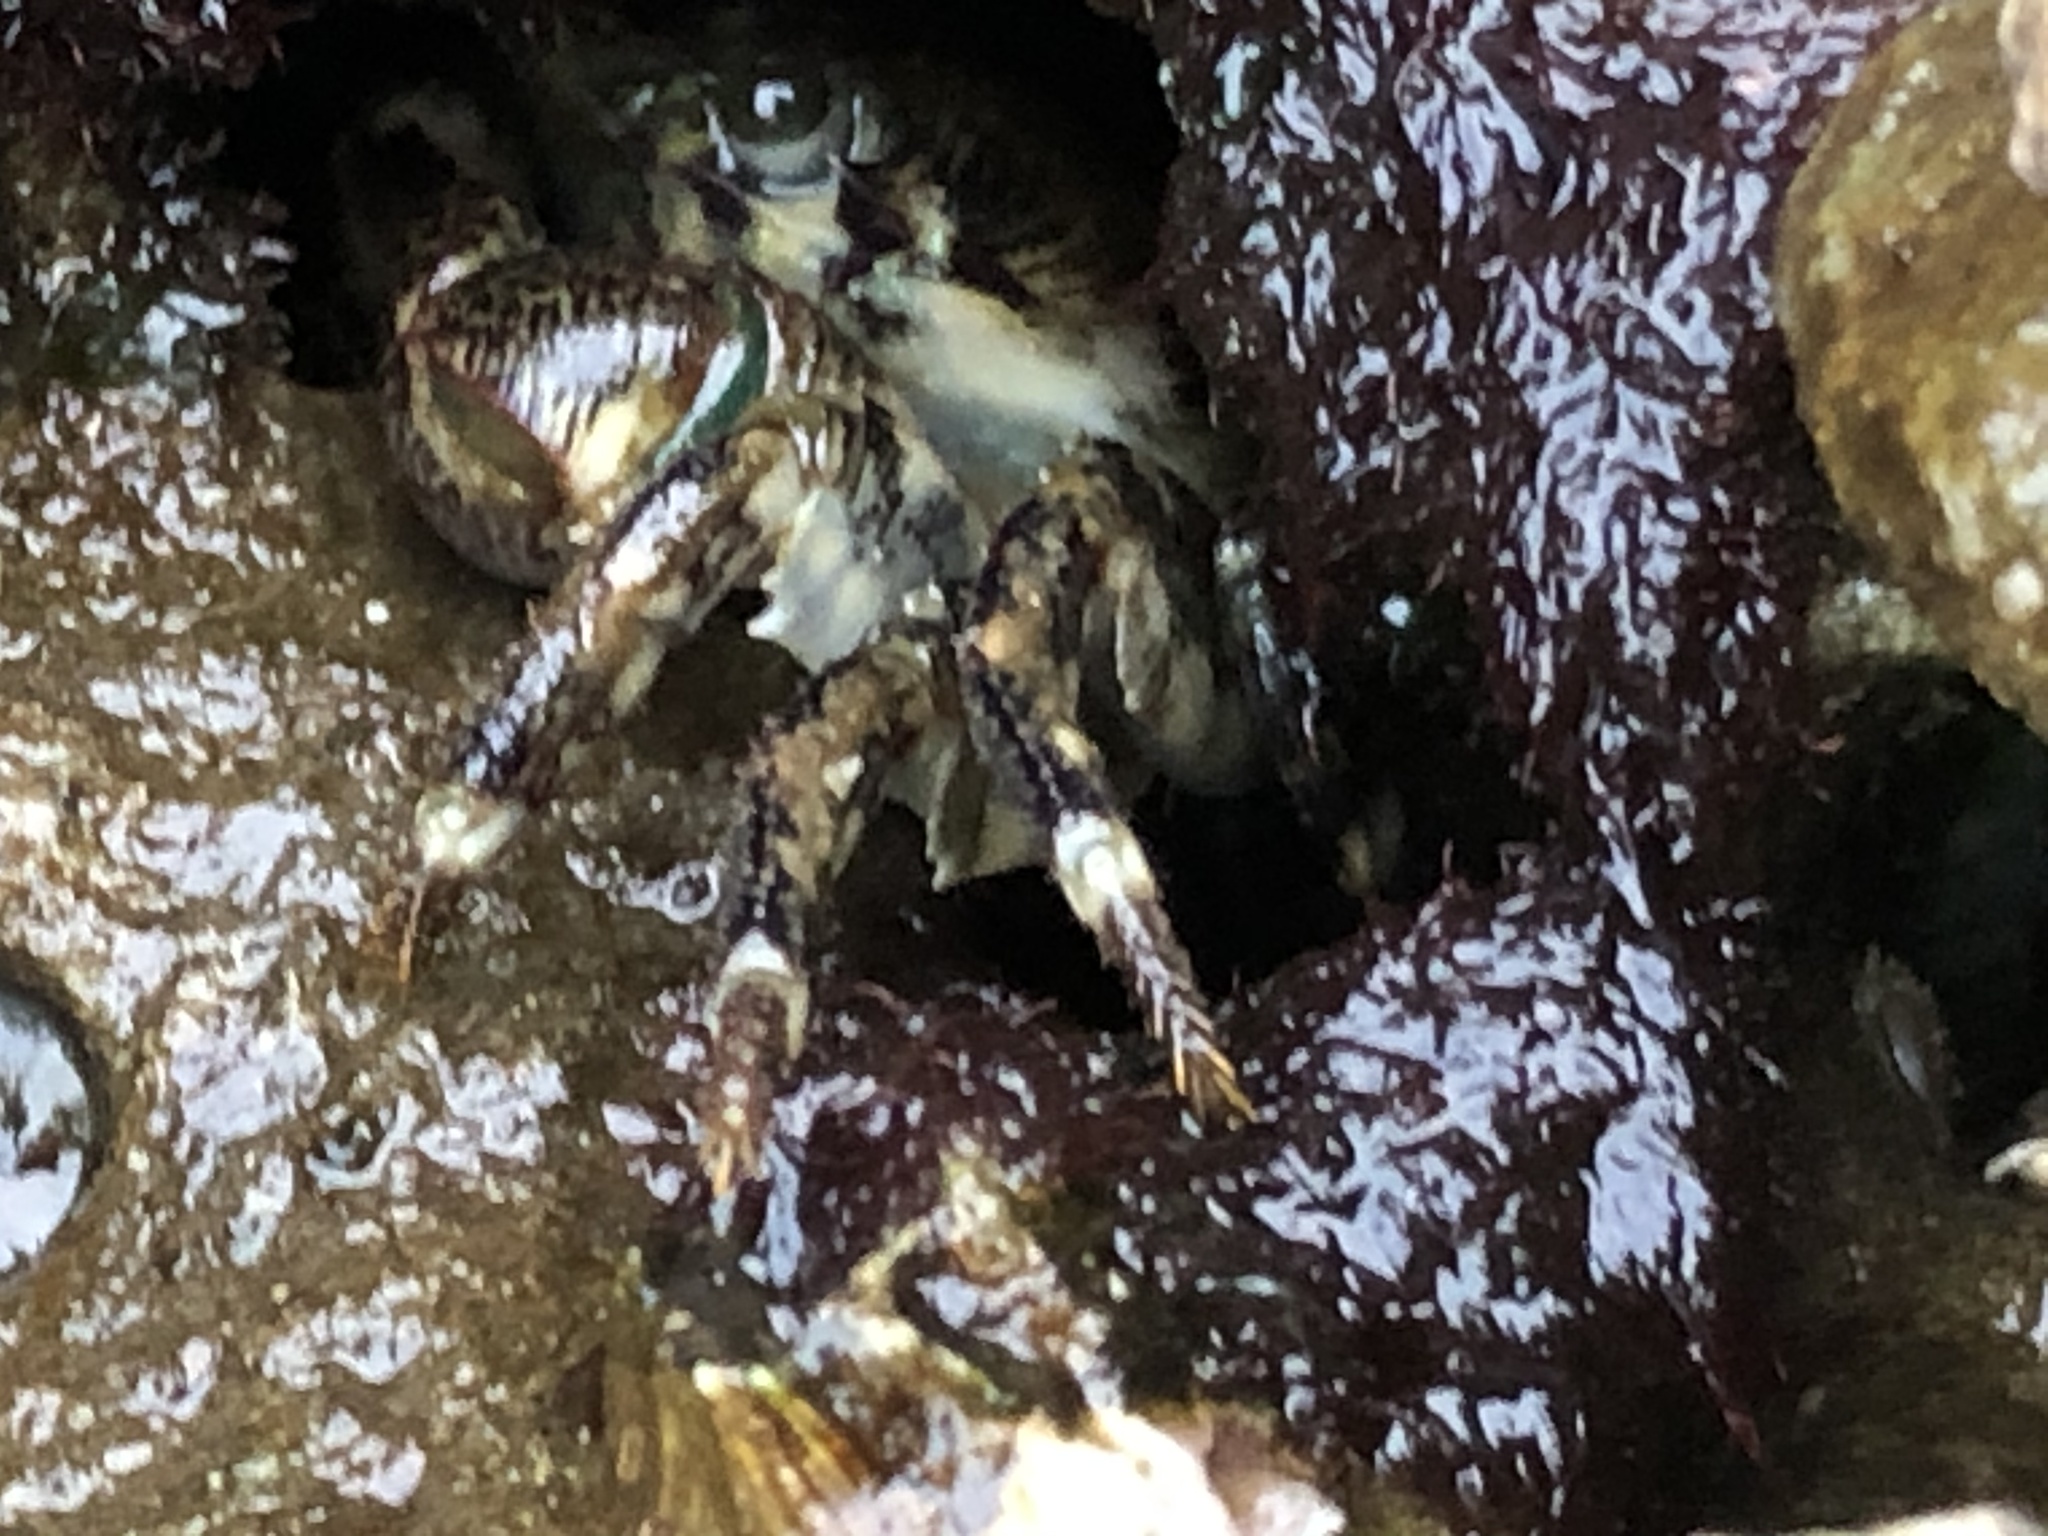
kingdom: Animalia
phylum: Arthropoda
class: Malacostraca
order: Decapoda
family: Grapsidae
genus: Pachygrapsus
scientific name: Pachygrapsus crassipes
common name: Striped shore crab
